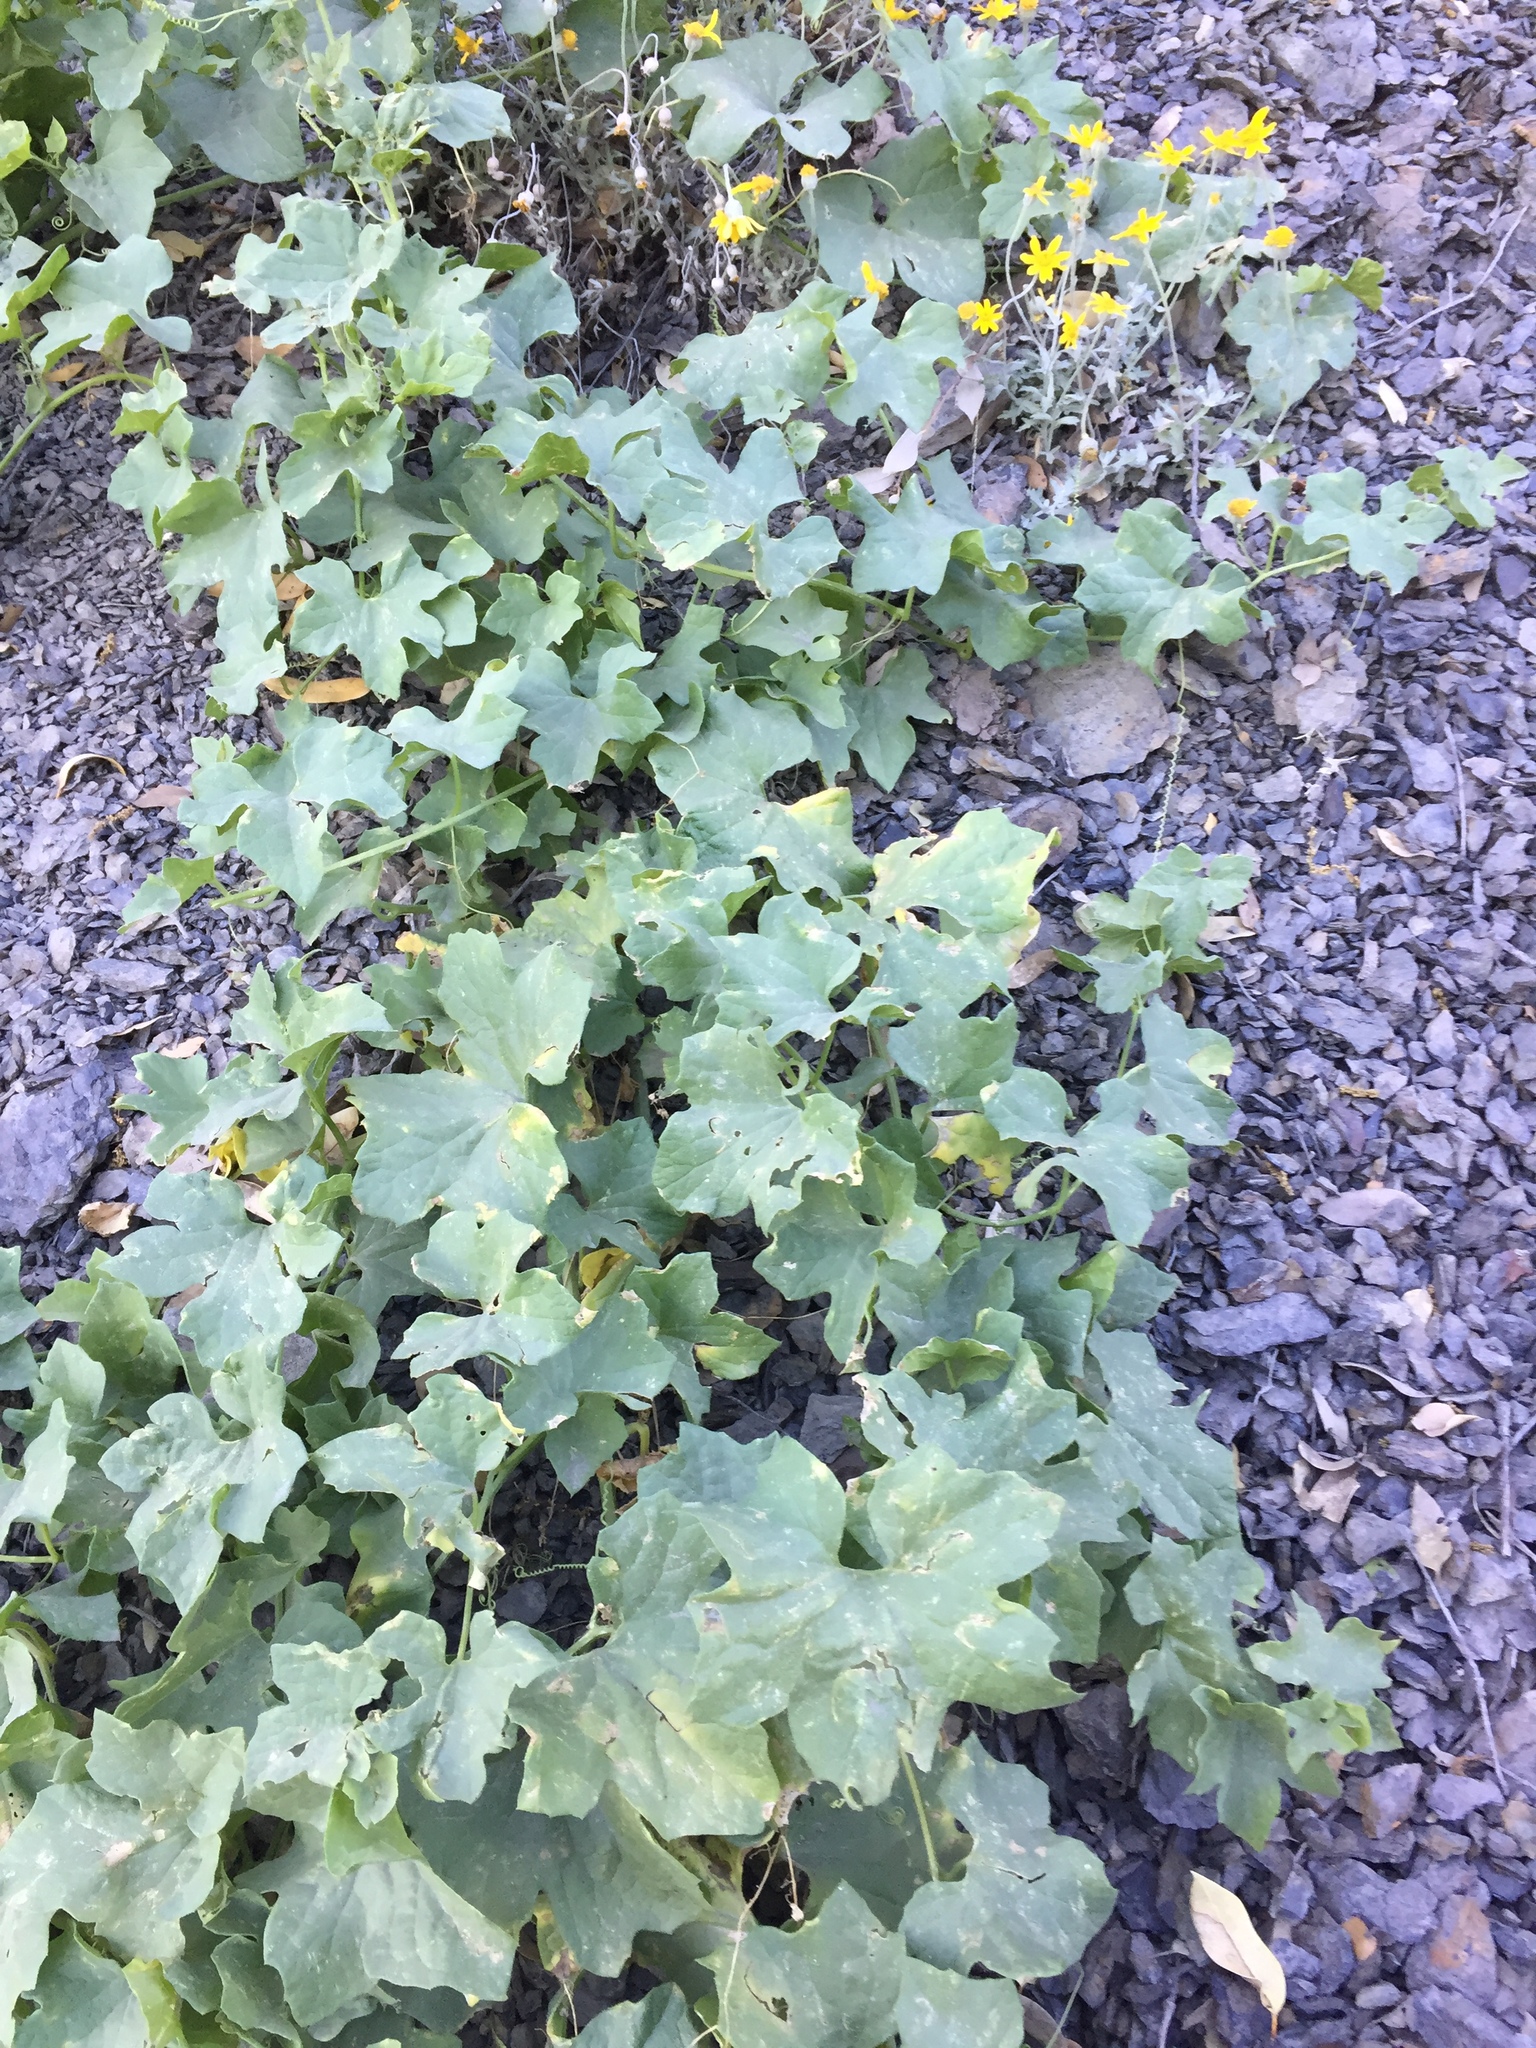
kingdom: Plantae
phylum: Tracheophyta
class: Magnoliopsida
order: Cucurbitales
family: Cucurbitaceae
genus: Marah
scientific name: Marah oregana
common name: Coastal manroot
